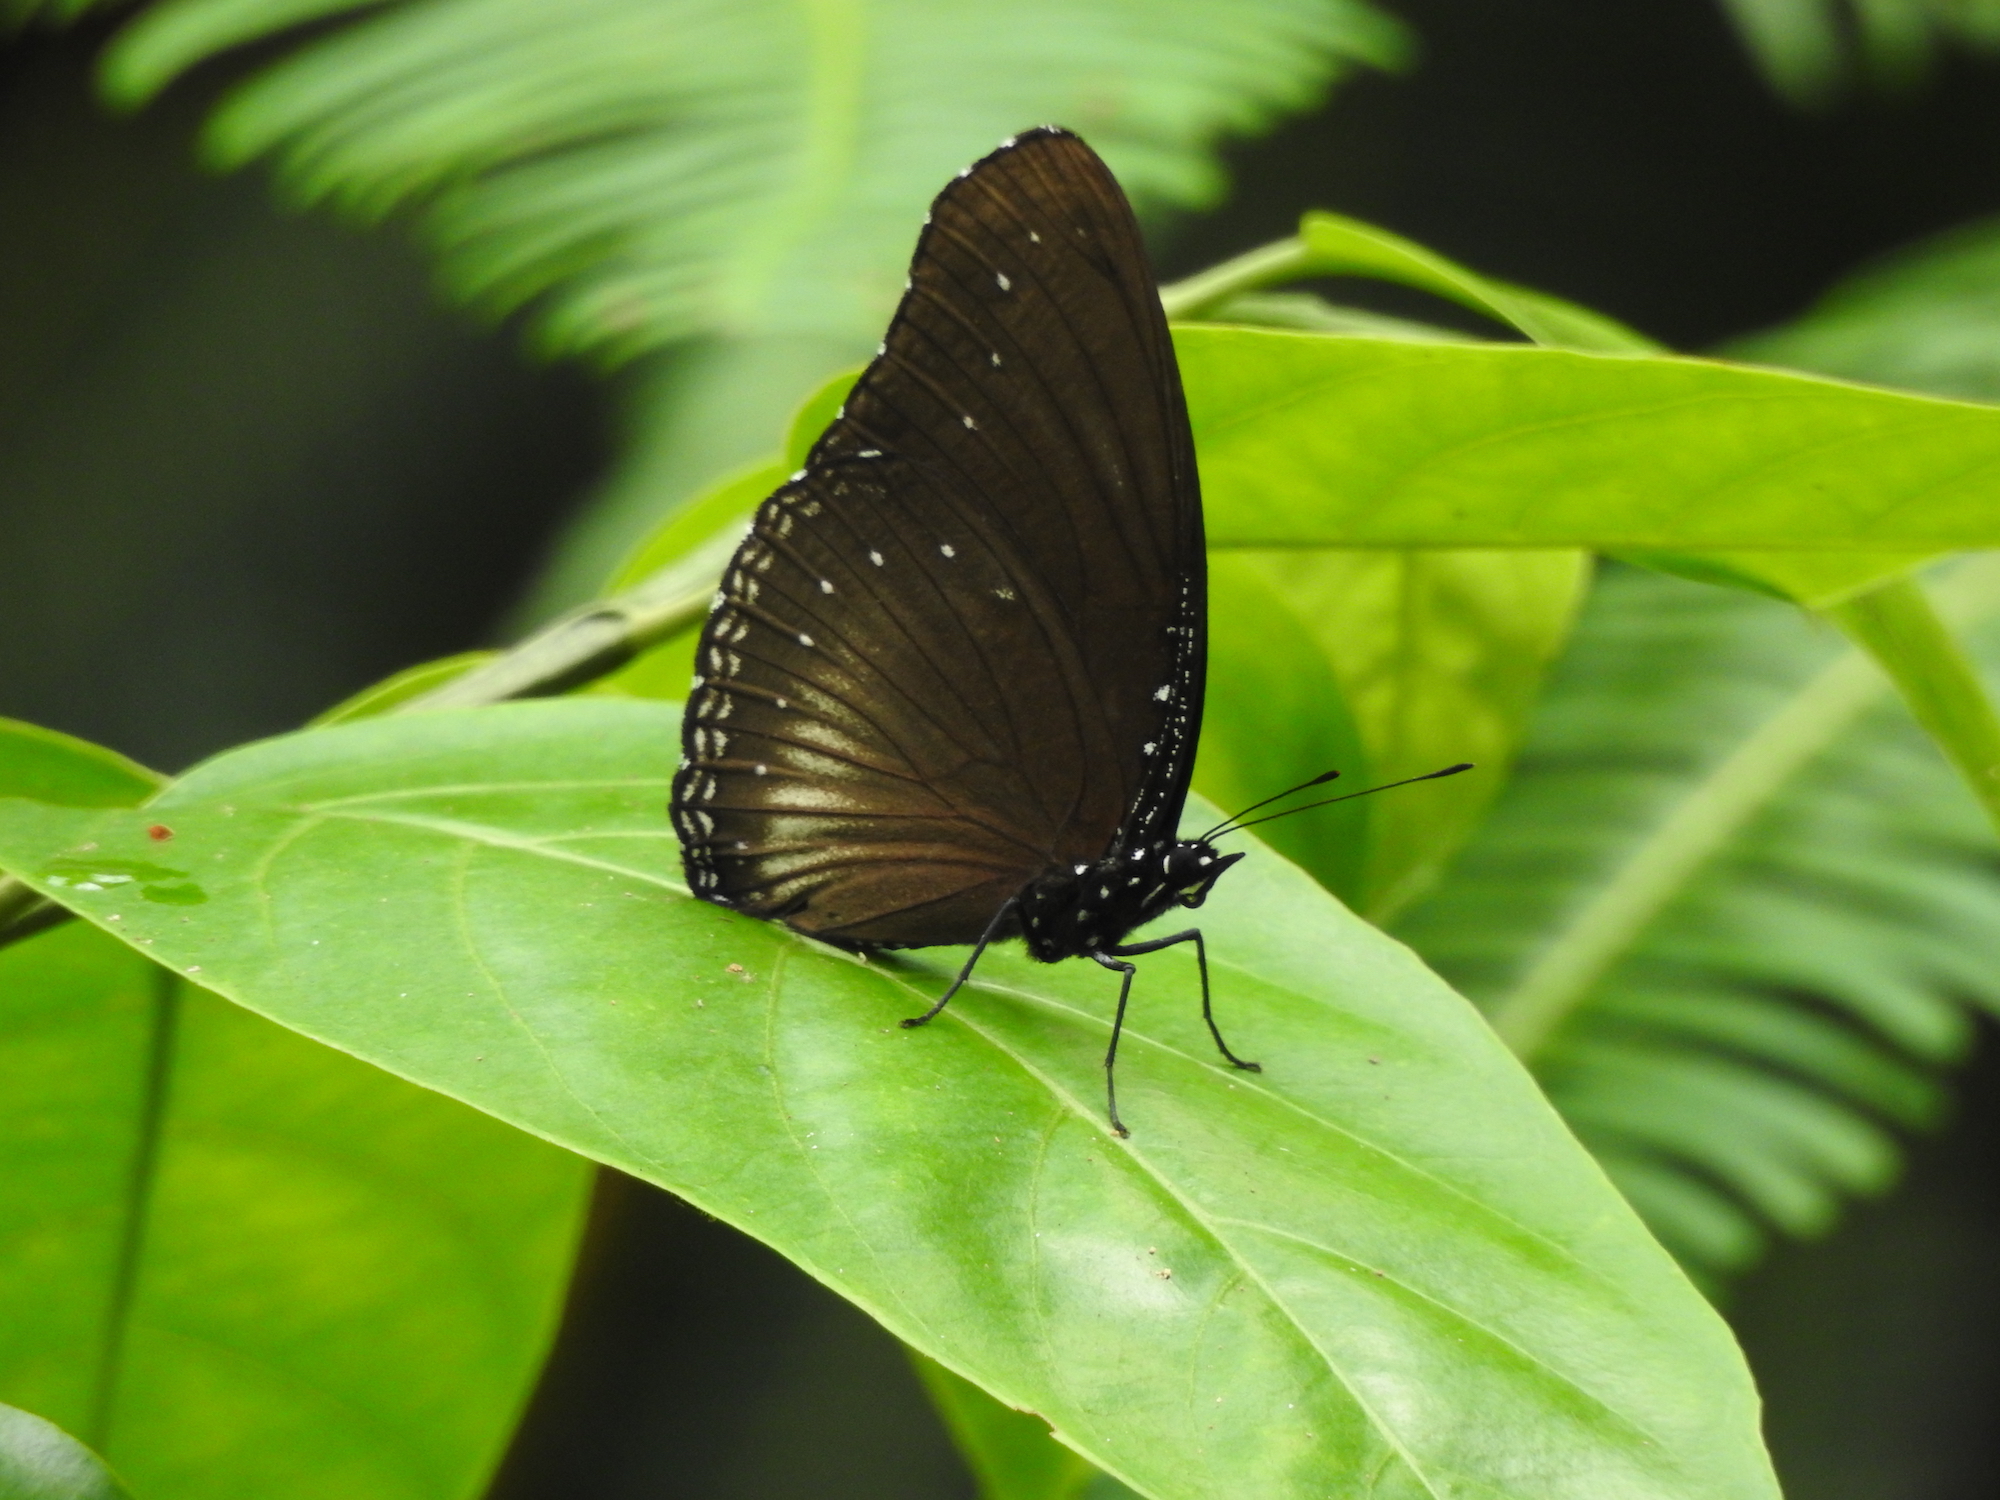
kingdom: Animalia
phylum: Arthropoda
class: Insecta
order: Lepidoptera
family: Nymphalidae
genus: Hypolimnas
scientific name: Hypolimnas anomala
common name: Malayan eggfly
